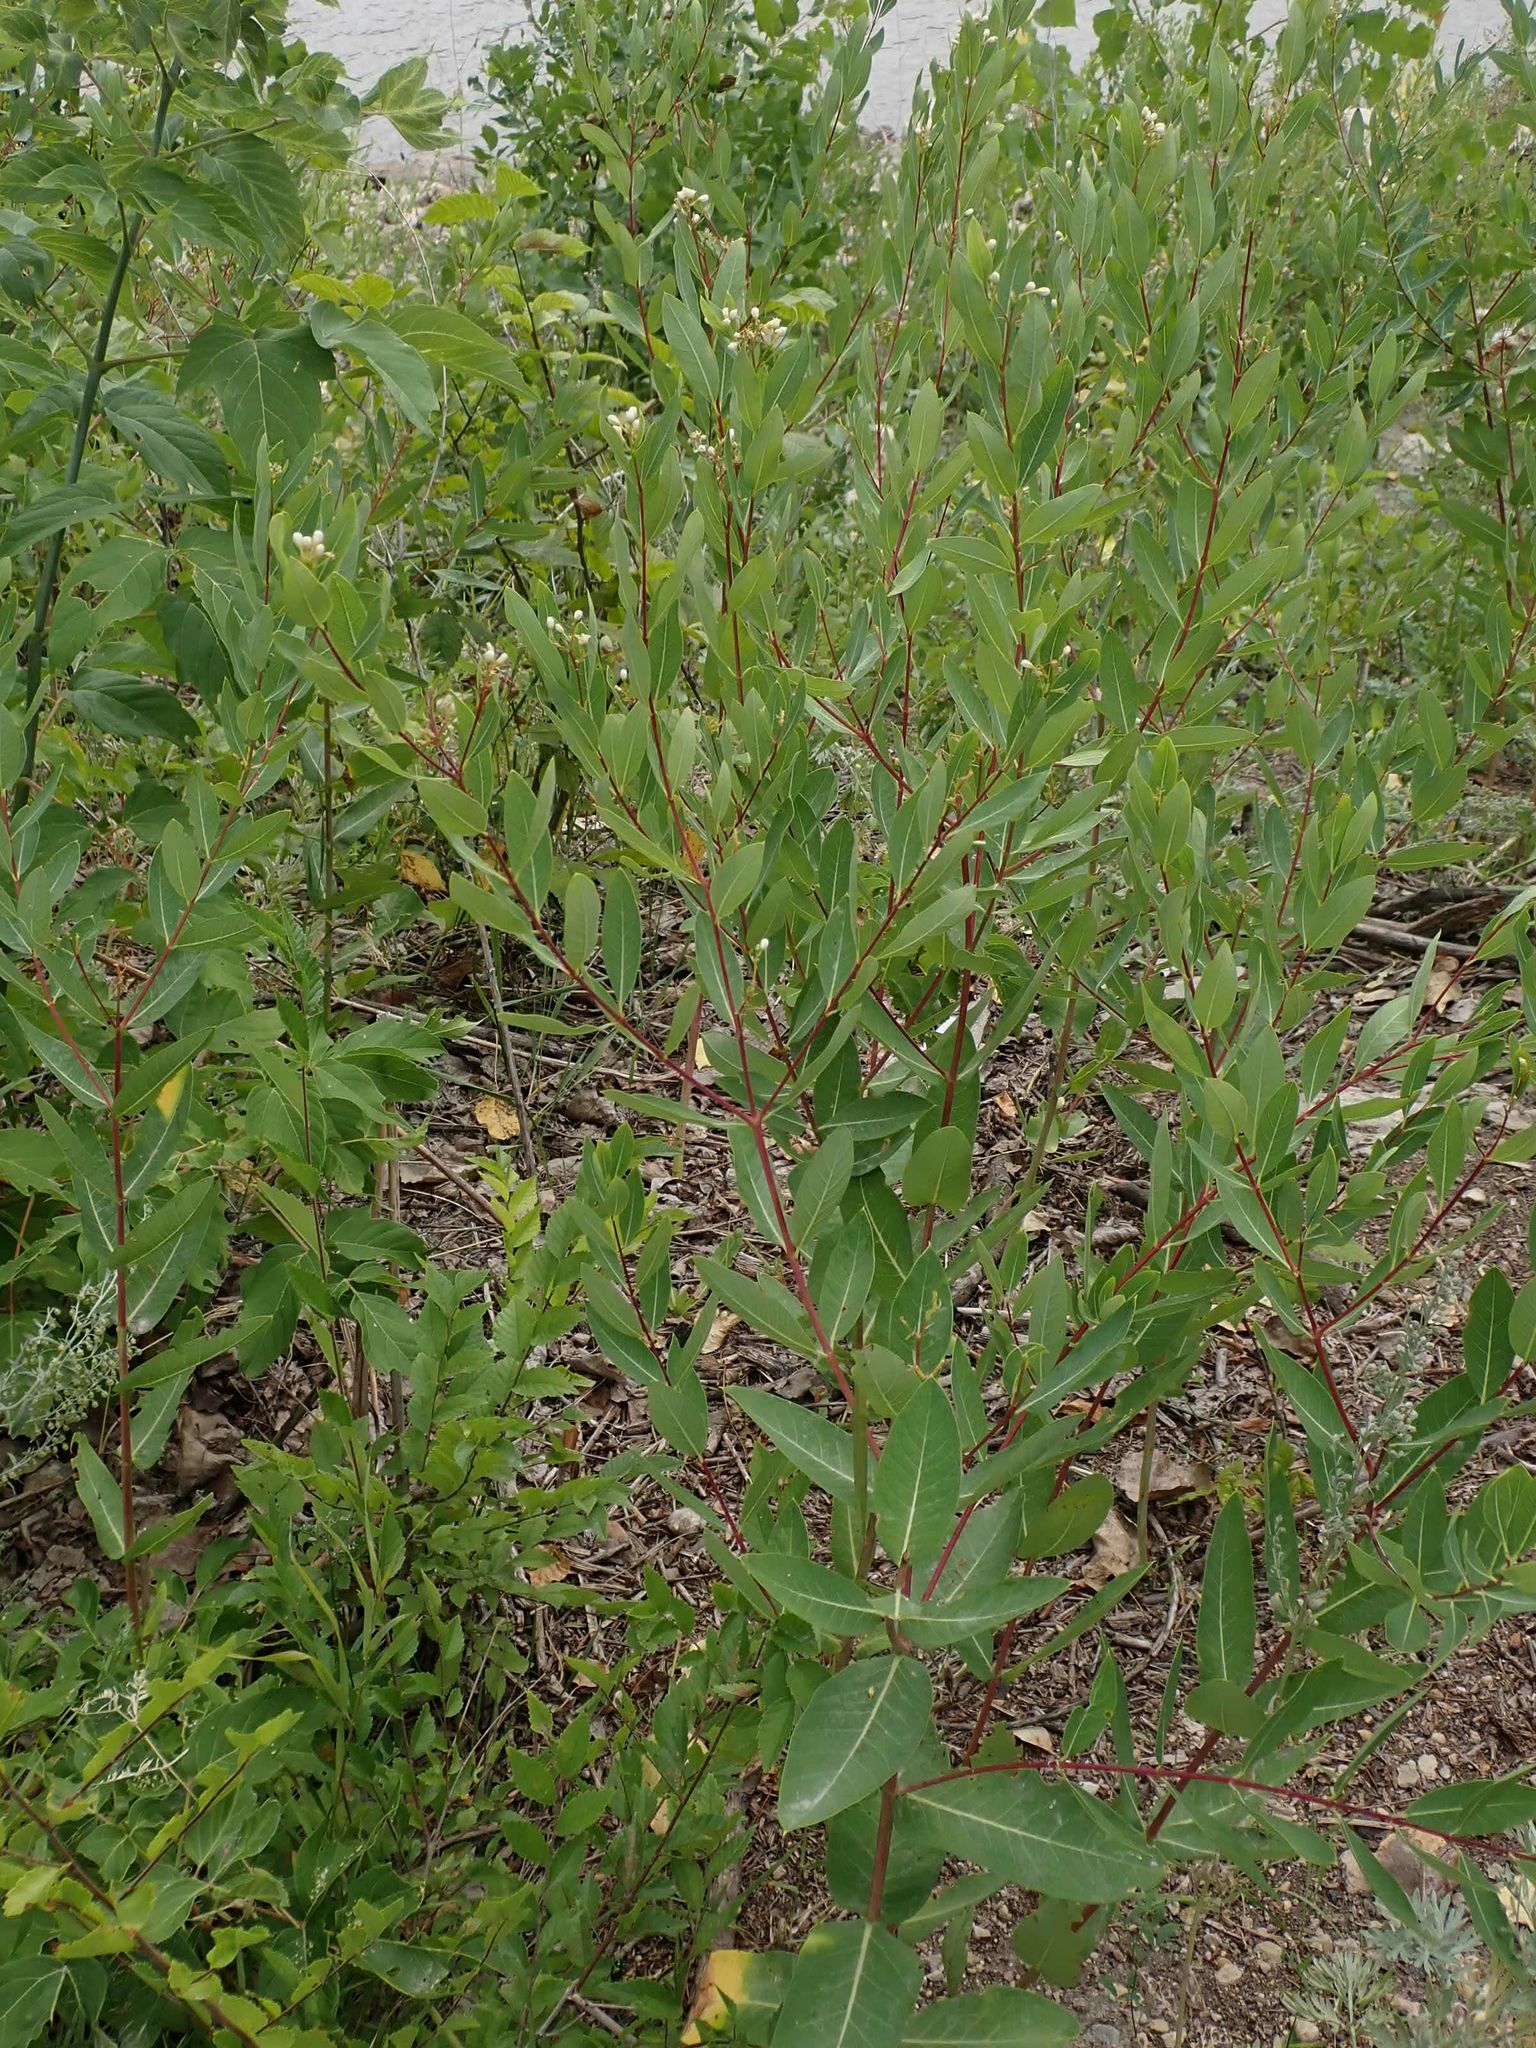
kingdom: Plantae
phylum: Tracheophyta
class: Magnoliopsida
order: Gentianales
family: Apocynaceae
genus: Apocynum
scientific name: Apocynum cannabinum
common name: Hemp dogbane
